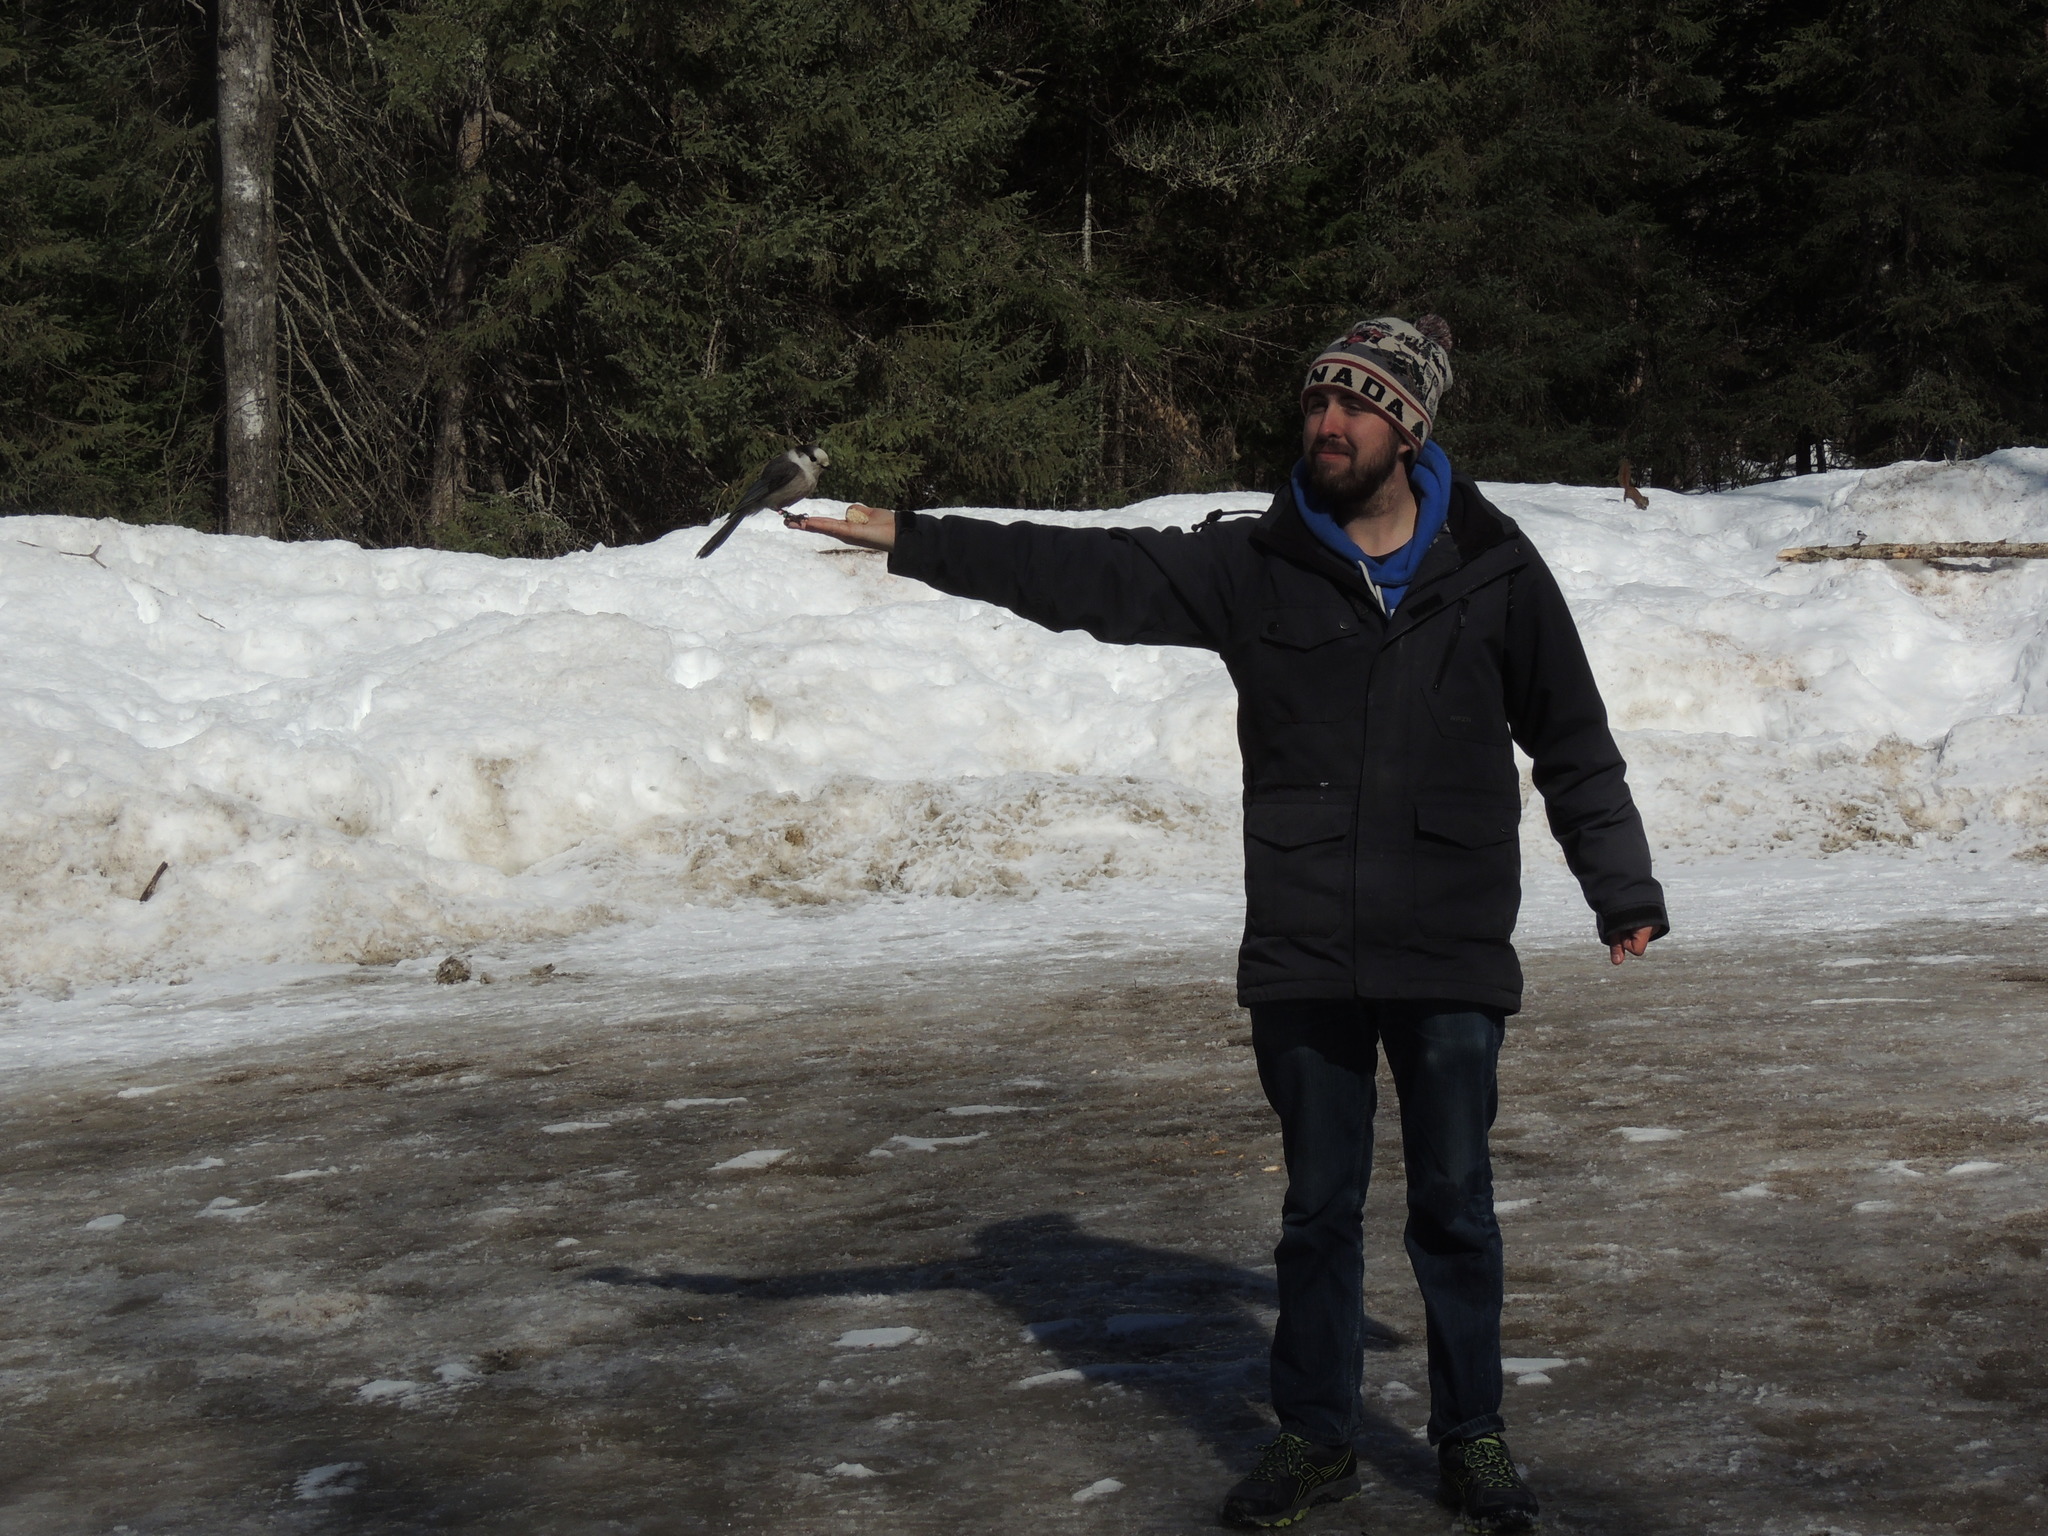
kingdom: Animalia
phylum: Chordata
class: Aves
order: Passeriformes
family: Corvidae
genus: Perisoreus
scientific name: Perisoreus canadensis
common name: Gray jay
